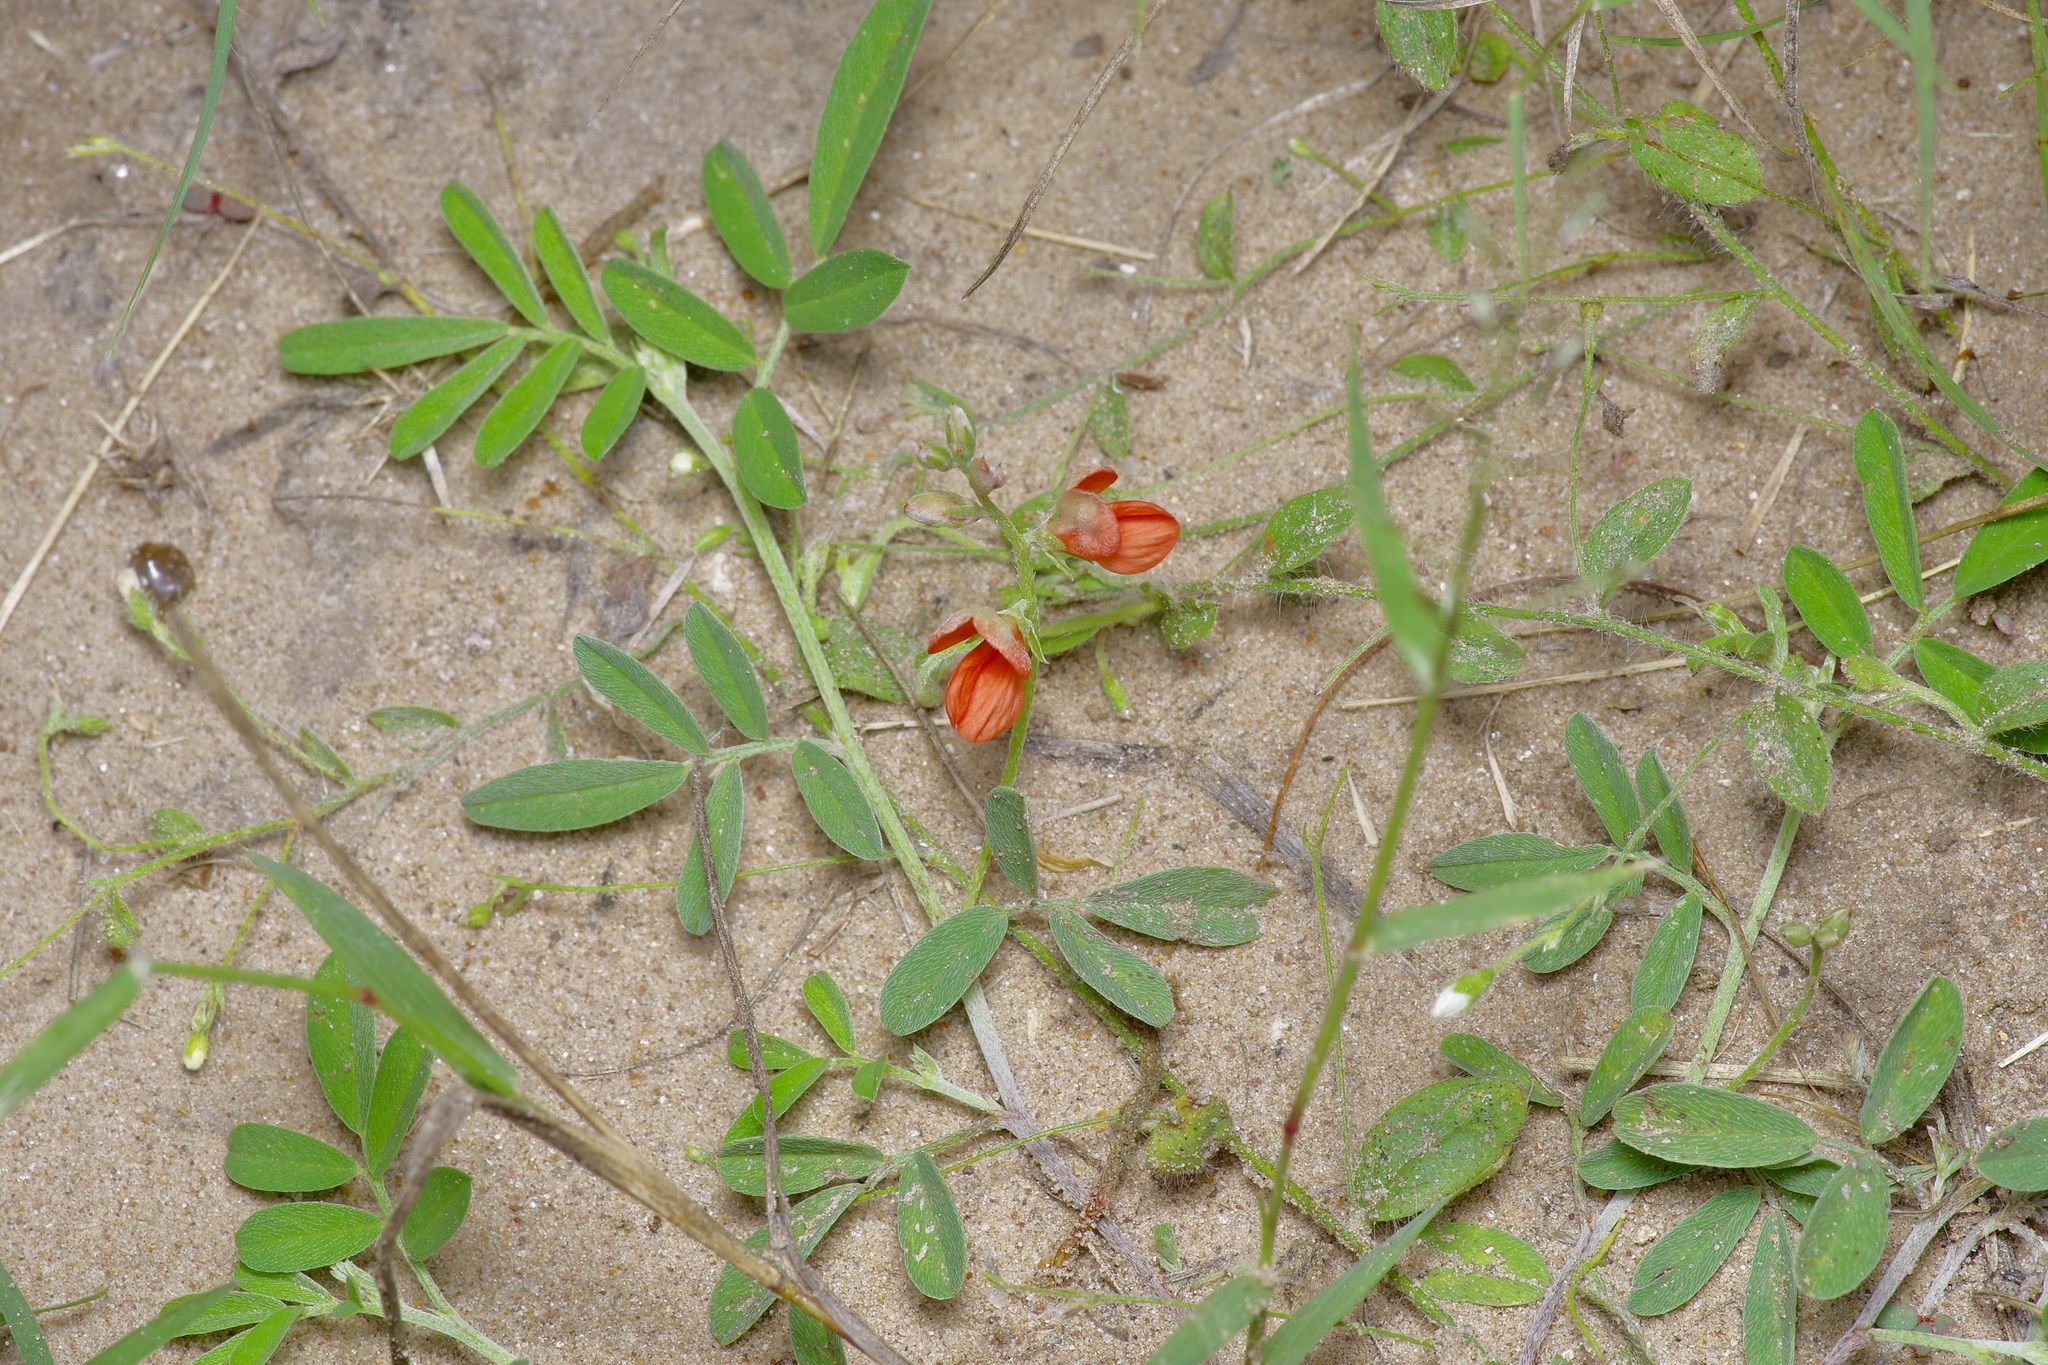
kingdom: Plantae
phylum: Tracheophyta
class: Magnoliopsida
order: Fabales
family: Fabaceae
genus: Indigofera
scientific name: Indigofera miniata
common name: Coast indigo
